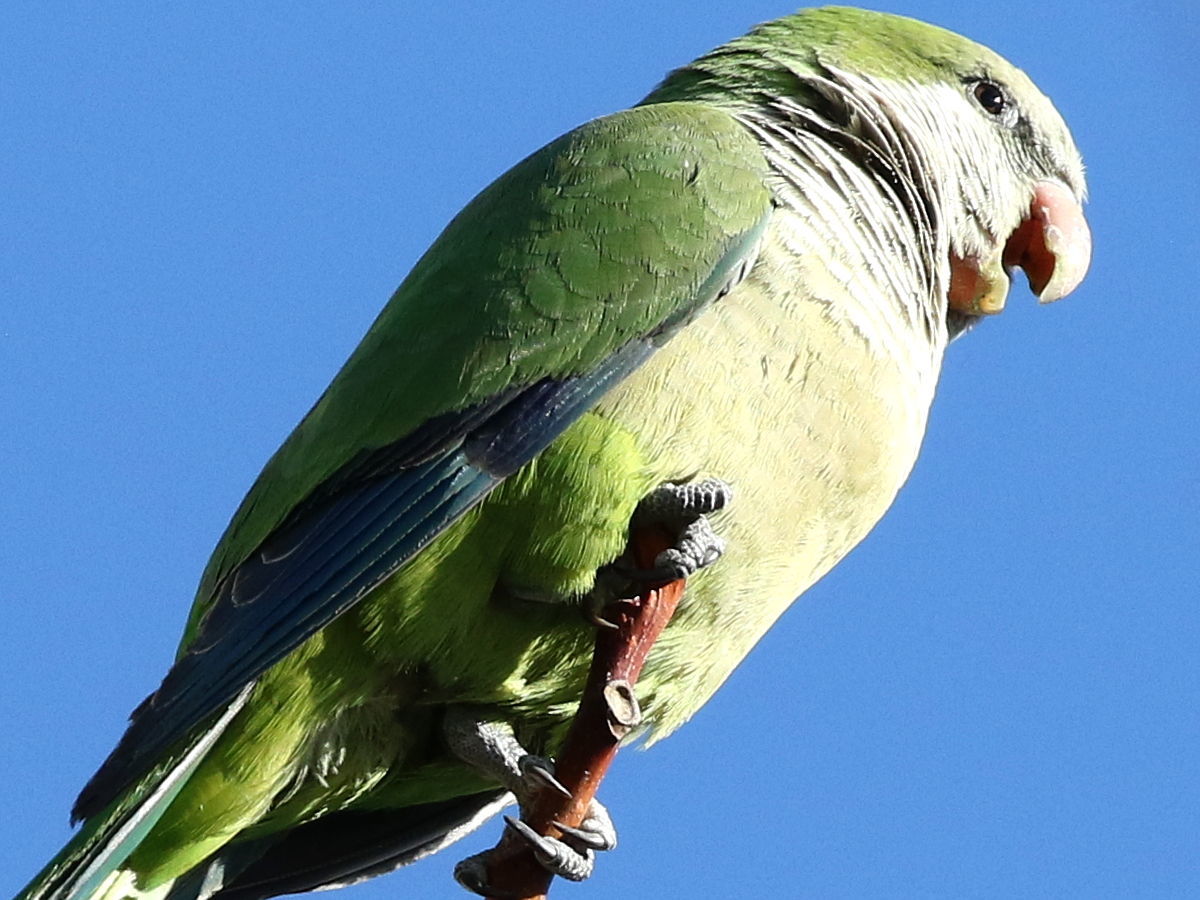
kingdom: Animalia
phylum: Chordata
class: Aves
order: Psittaciformes
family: Psittacidae
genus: Myiopsitta
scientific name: Myiopsitta monachus
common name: Monk parakeet
